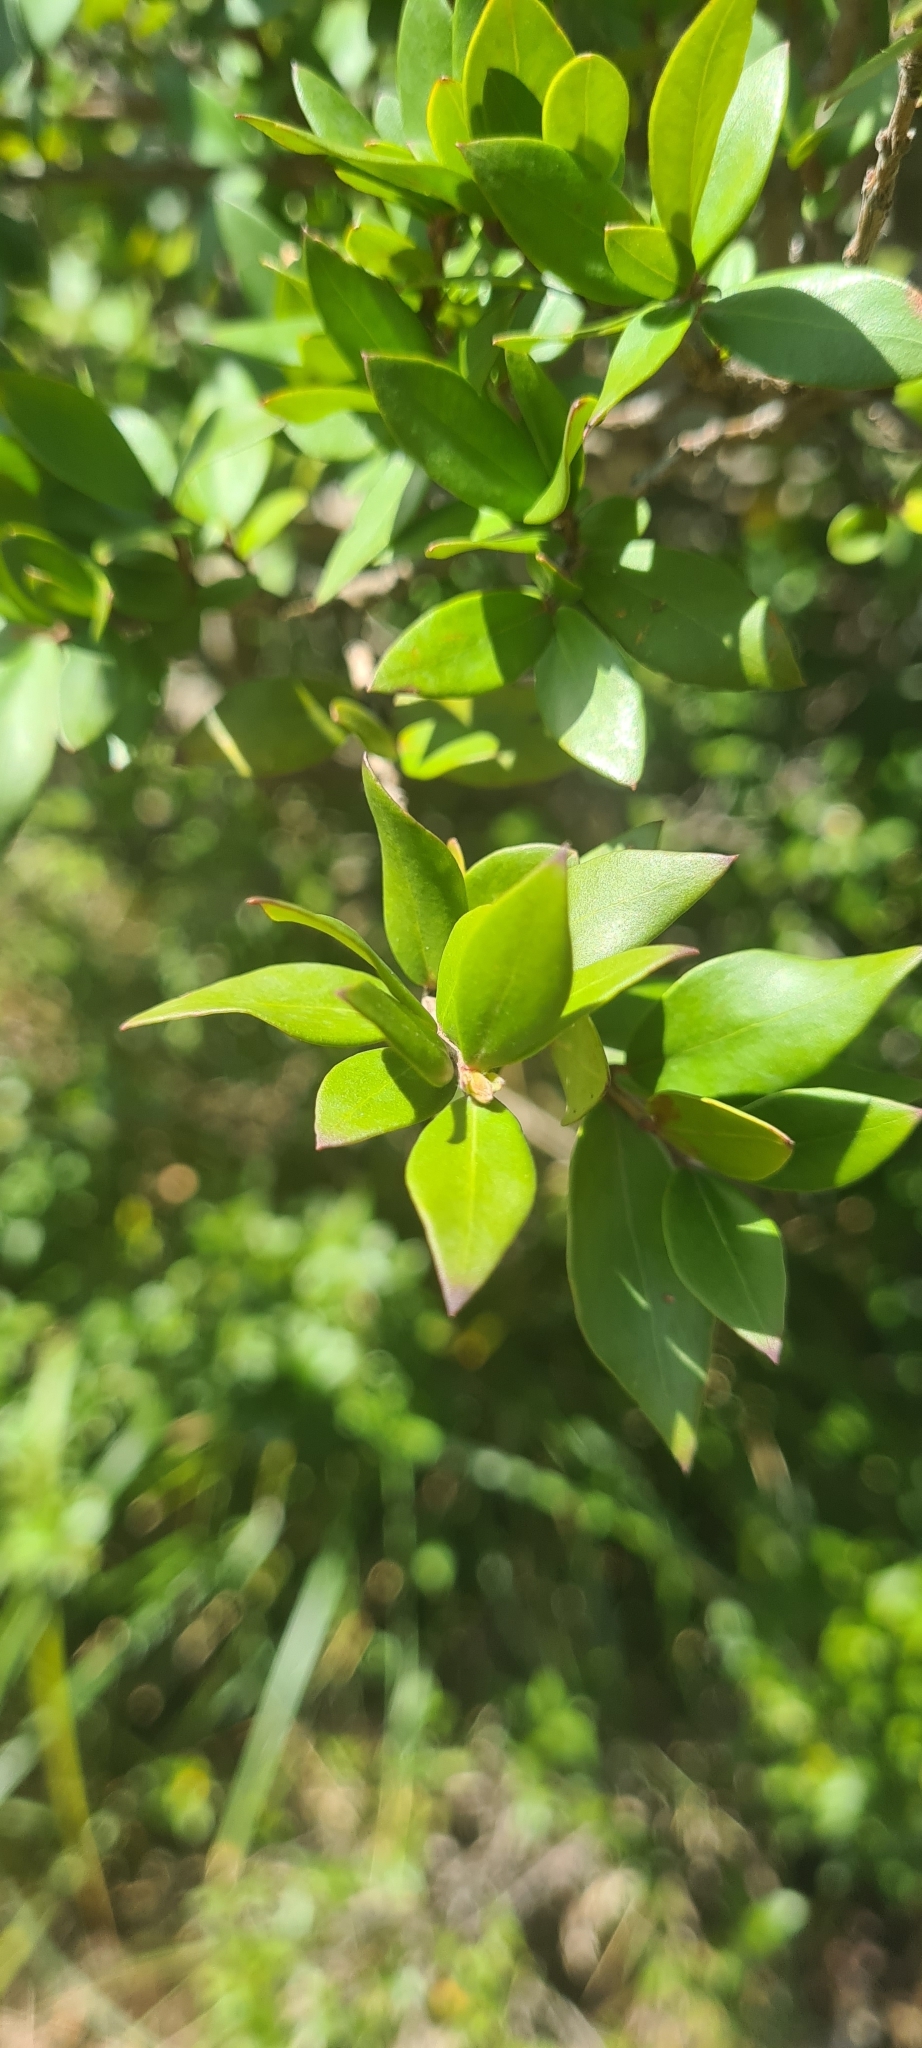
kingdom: Plantae
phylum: Tracheophyta
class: Magnoliopsida
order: Myrtales
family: Myrtaceae
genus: Myrtus
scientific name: Myrtus communis
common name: Myrtle
